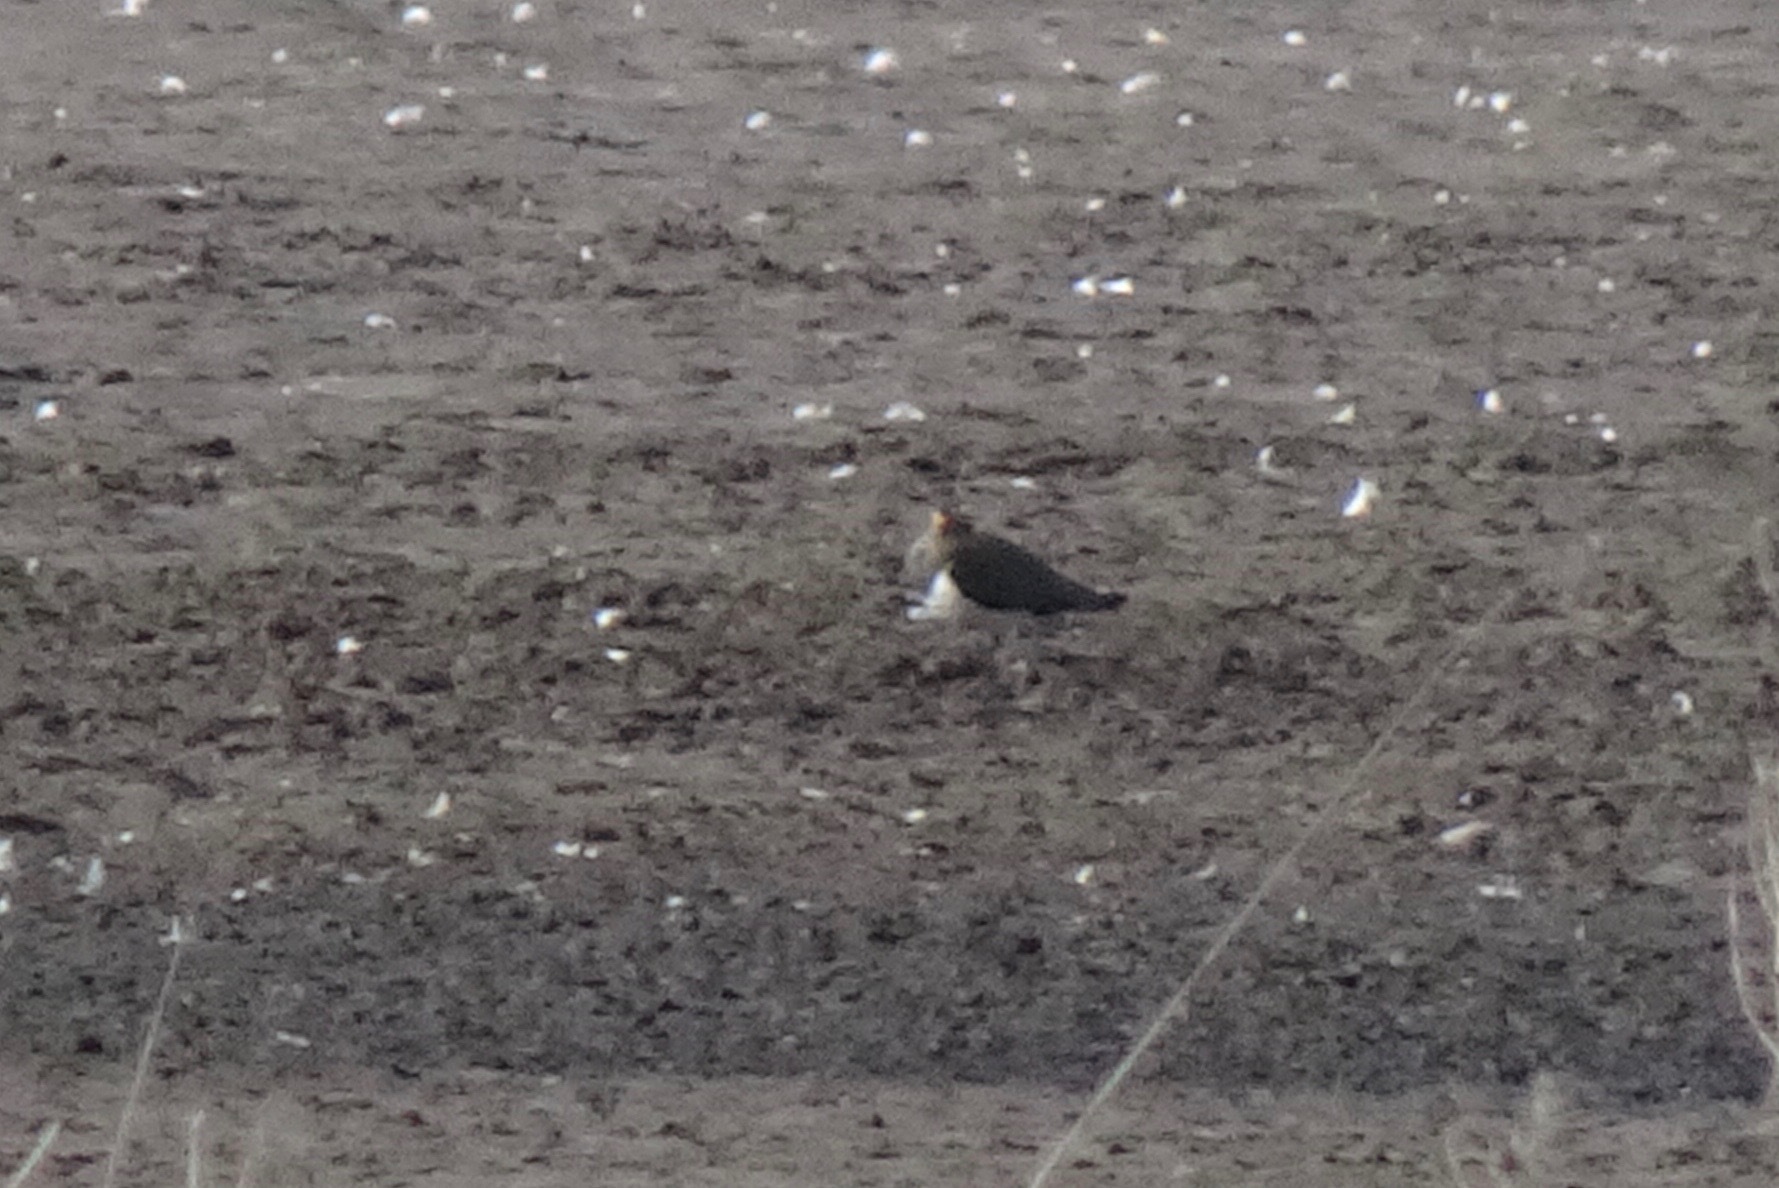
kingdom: Animalia
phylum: Chordata
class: Aves
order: Charadriiformes
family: Charadriidae
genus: Vanellus
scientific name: Vanellus vanellus
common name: Northern lapwing
